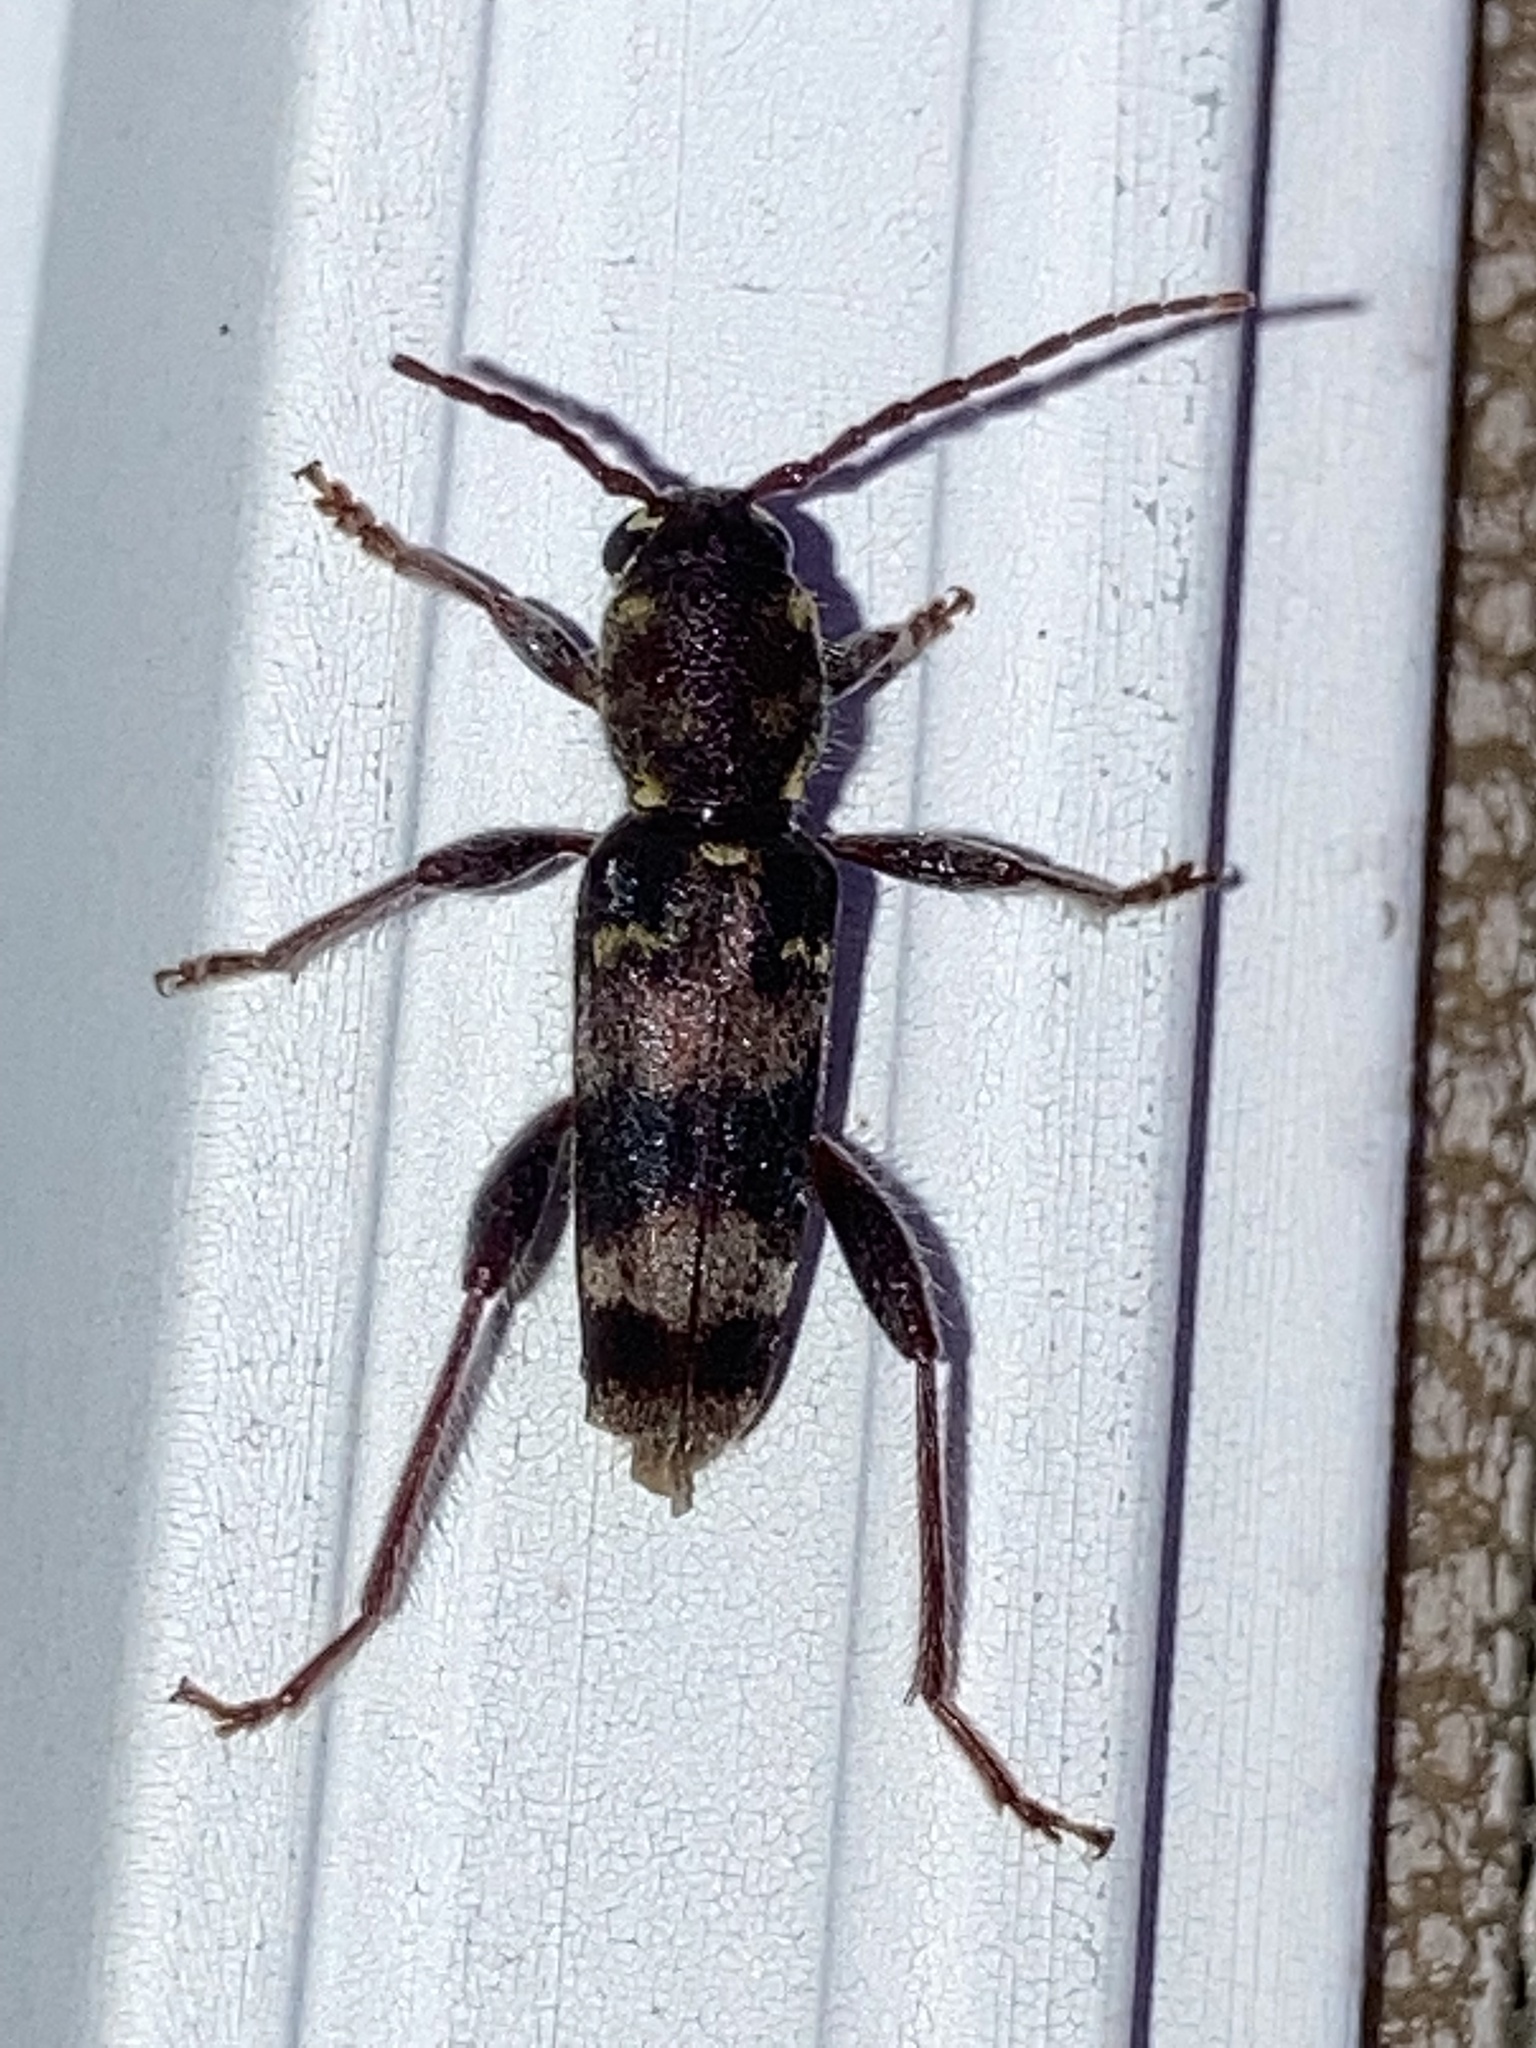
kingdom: Animalia
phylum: Arthropoda
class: Insecta
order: Coleoptera
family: Cerambycidae
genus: Xylotrechus
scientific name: Xylotrechus colonus
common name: Long-horned beetle
